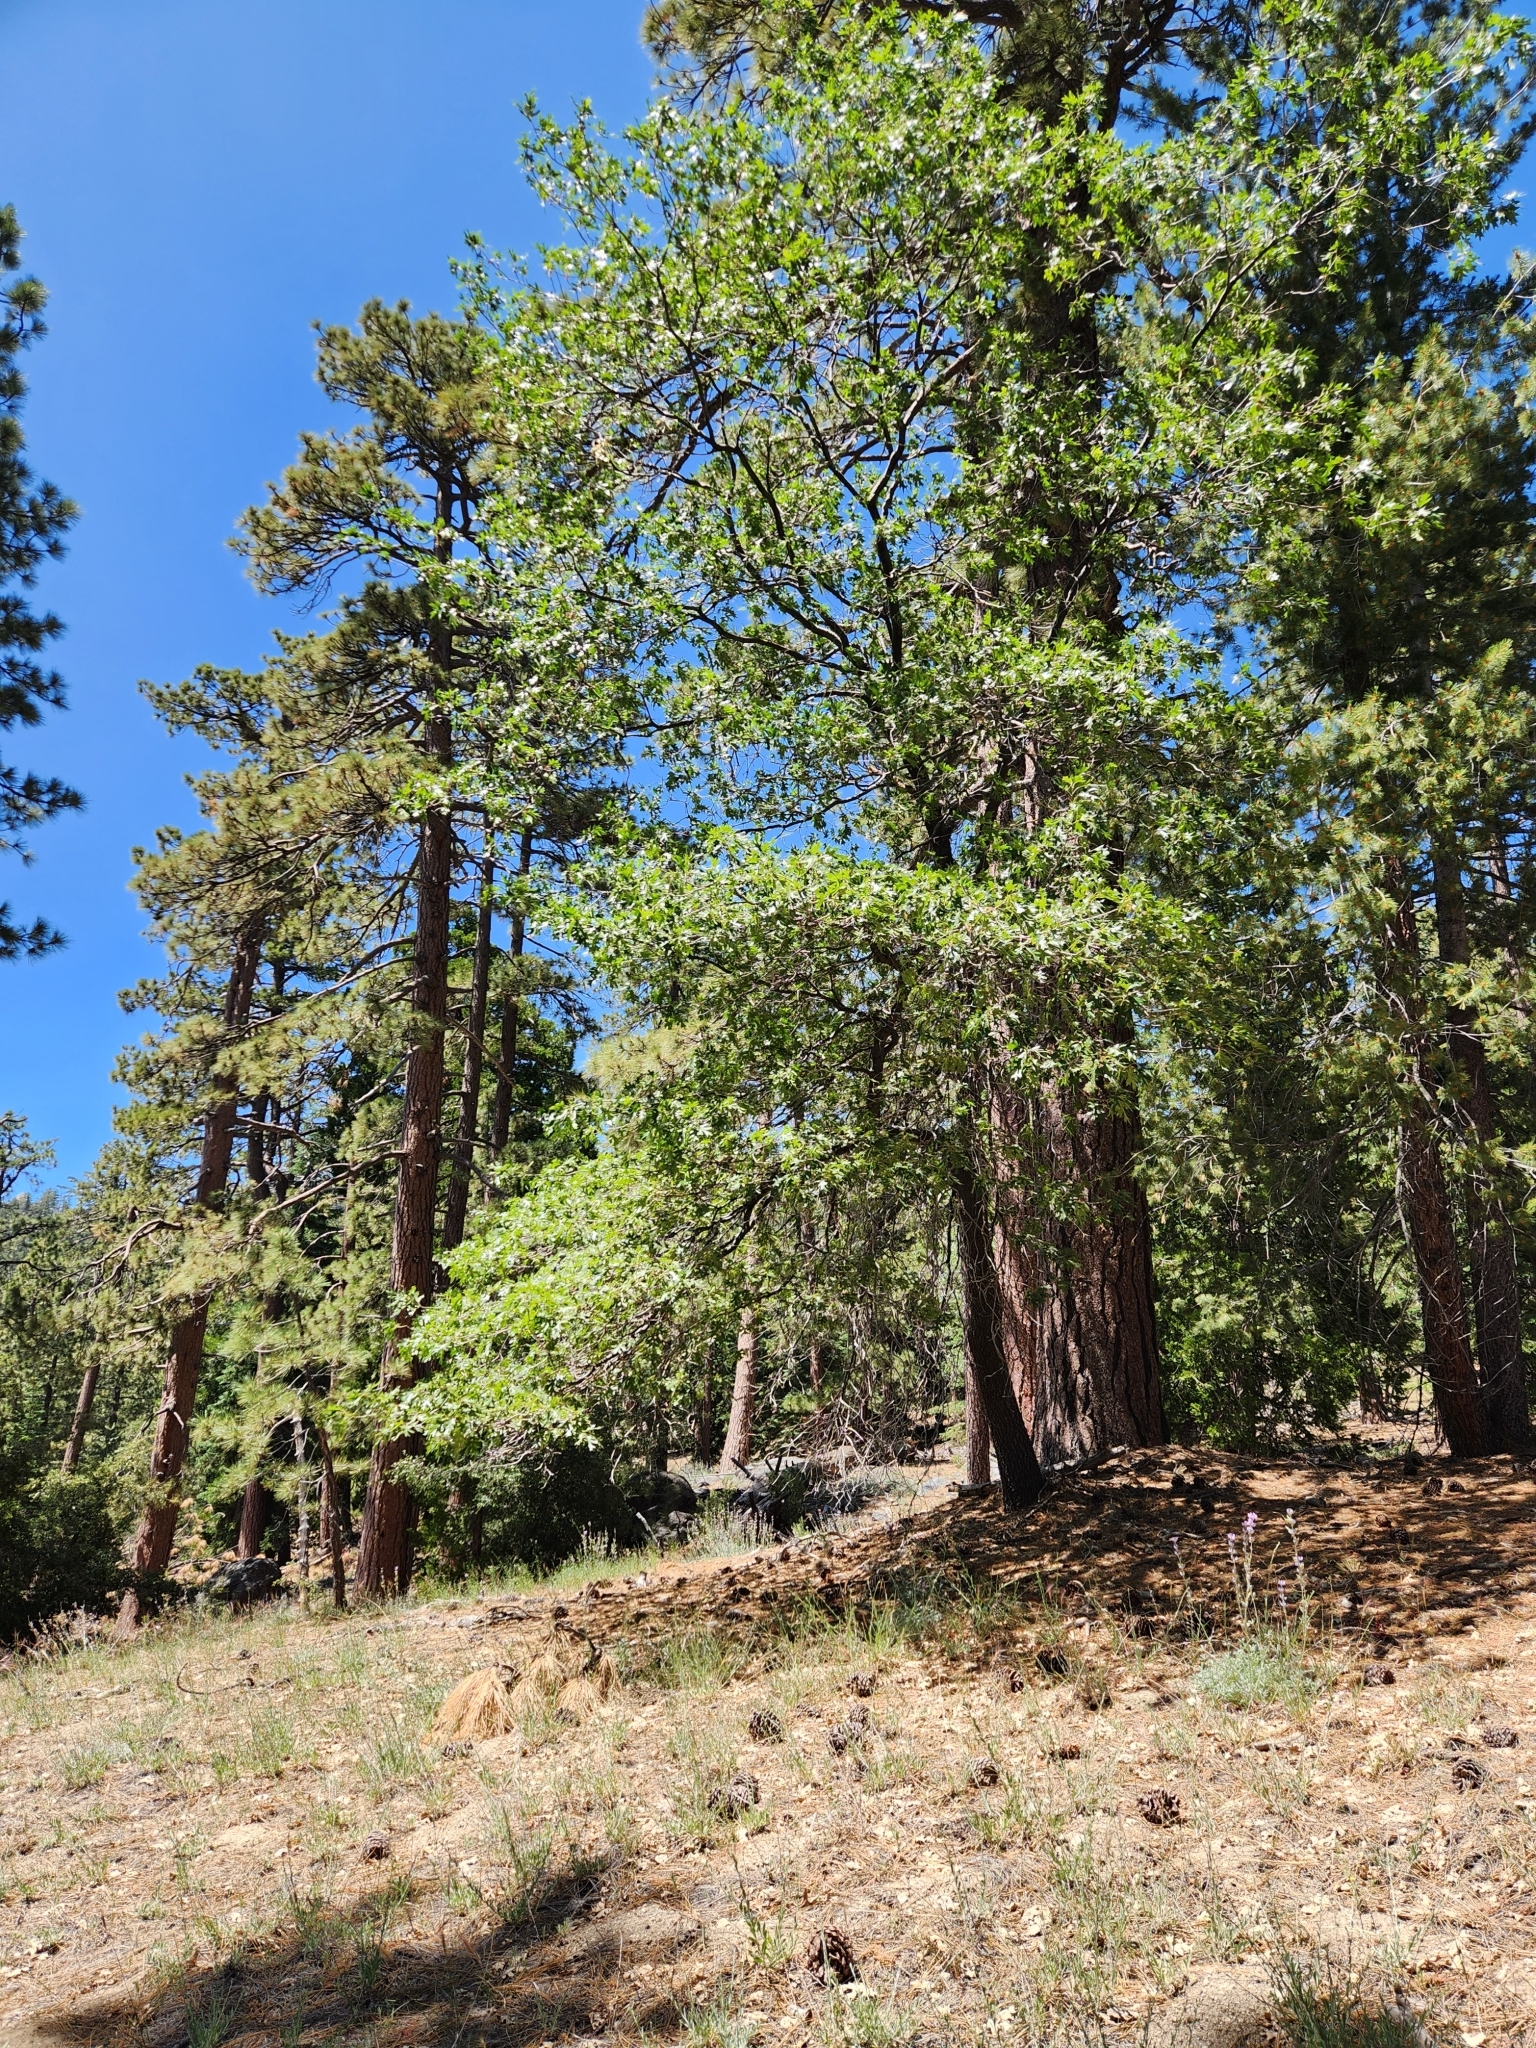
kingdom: Plantae
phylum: Tracheophyta
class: Magnoliopsida
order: Fagales
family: Fagaceae
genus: Quercus
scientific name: Quercus kelloggii
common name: California black oak
